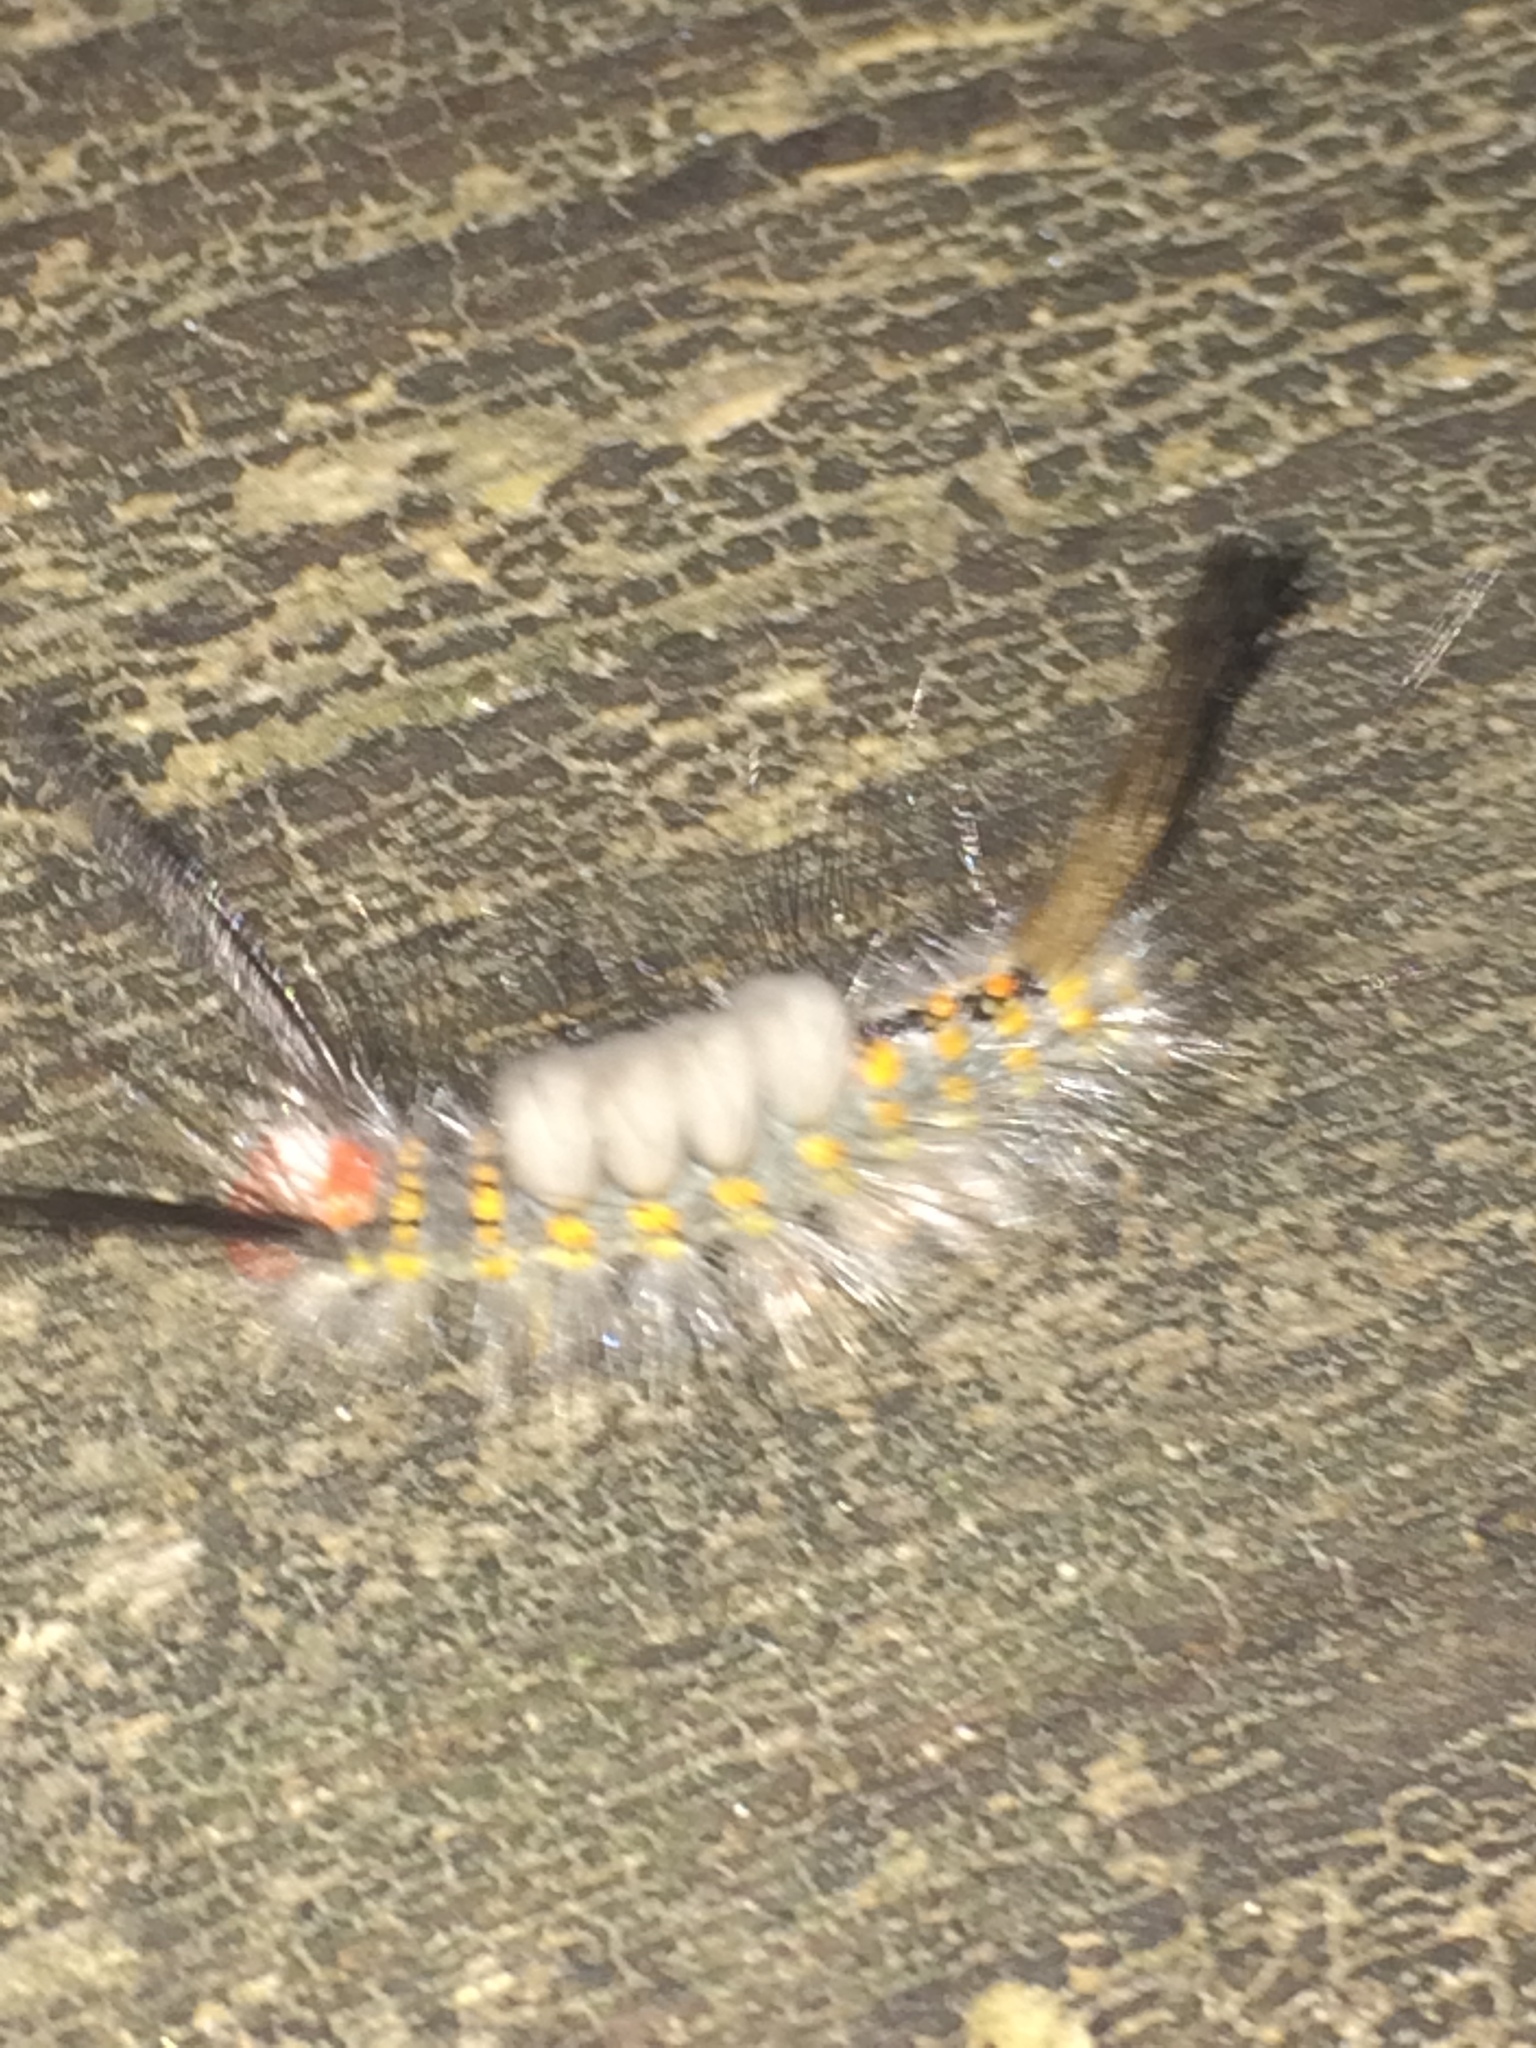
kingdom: Animalia
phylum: Arthropoda
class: Insecta
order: Lepidoptera
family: Erebidae
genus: Orgyia
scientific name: Orgyia detrita
